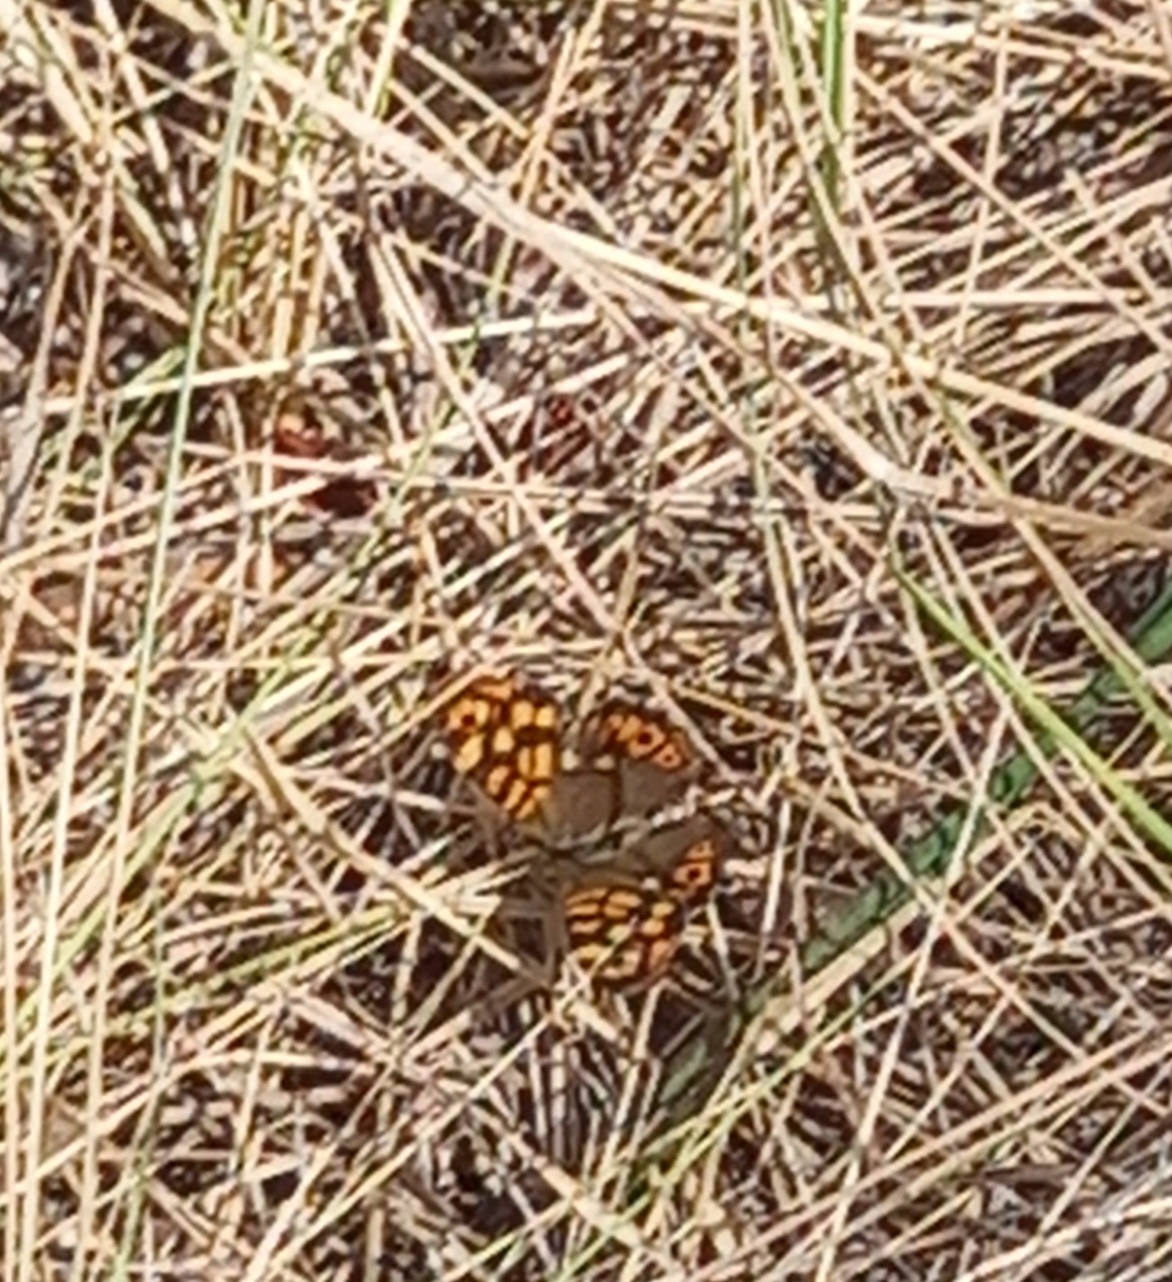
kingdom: Animalia
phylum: Arthropoda
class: Insecta
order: Lepidoptera
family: Nymphalidae
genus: Pararge
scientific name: Pararge aegeria
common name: Speckled wood
